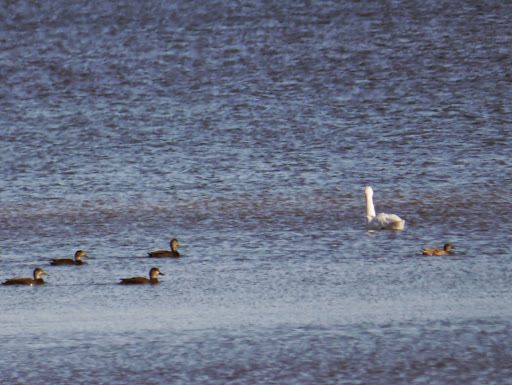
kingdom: Animalia
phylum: Chordata
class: Aves
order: Anseriformes
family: Anatidae
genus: Mareca
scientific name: Mareca strepera
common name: Gadwall
